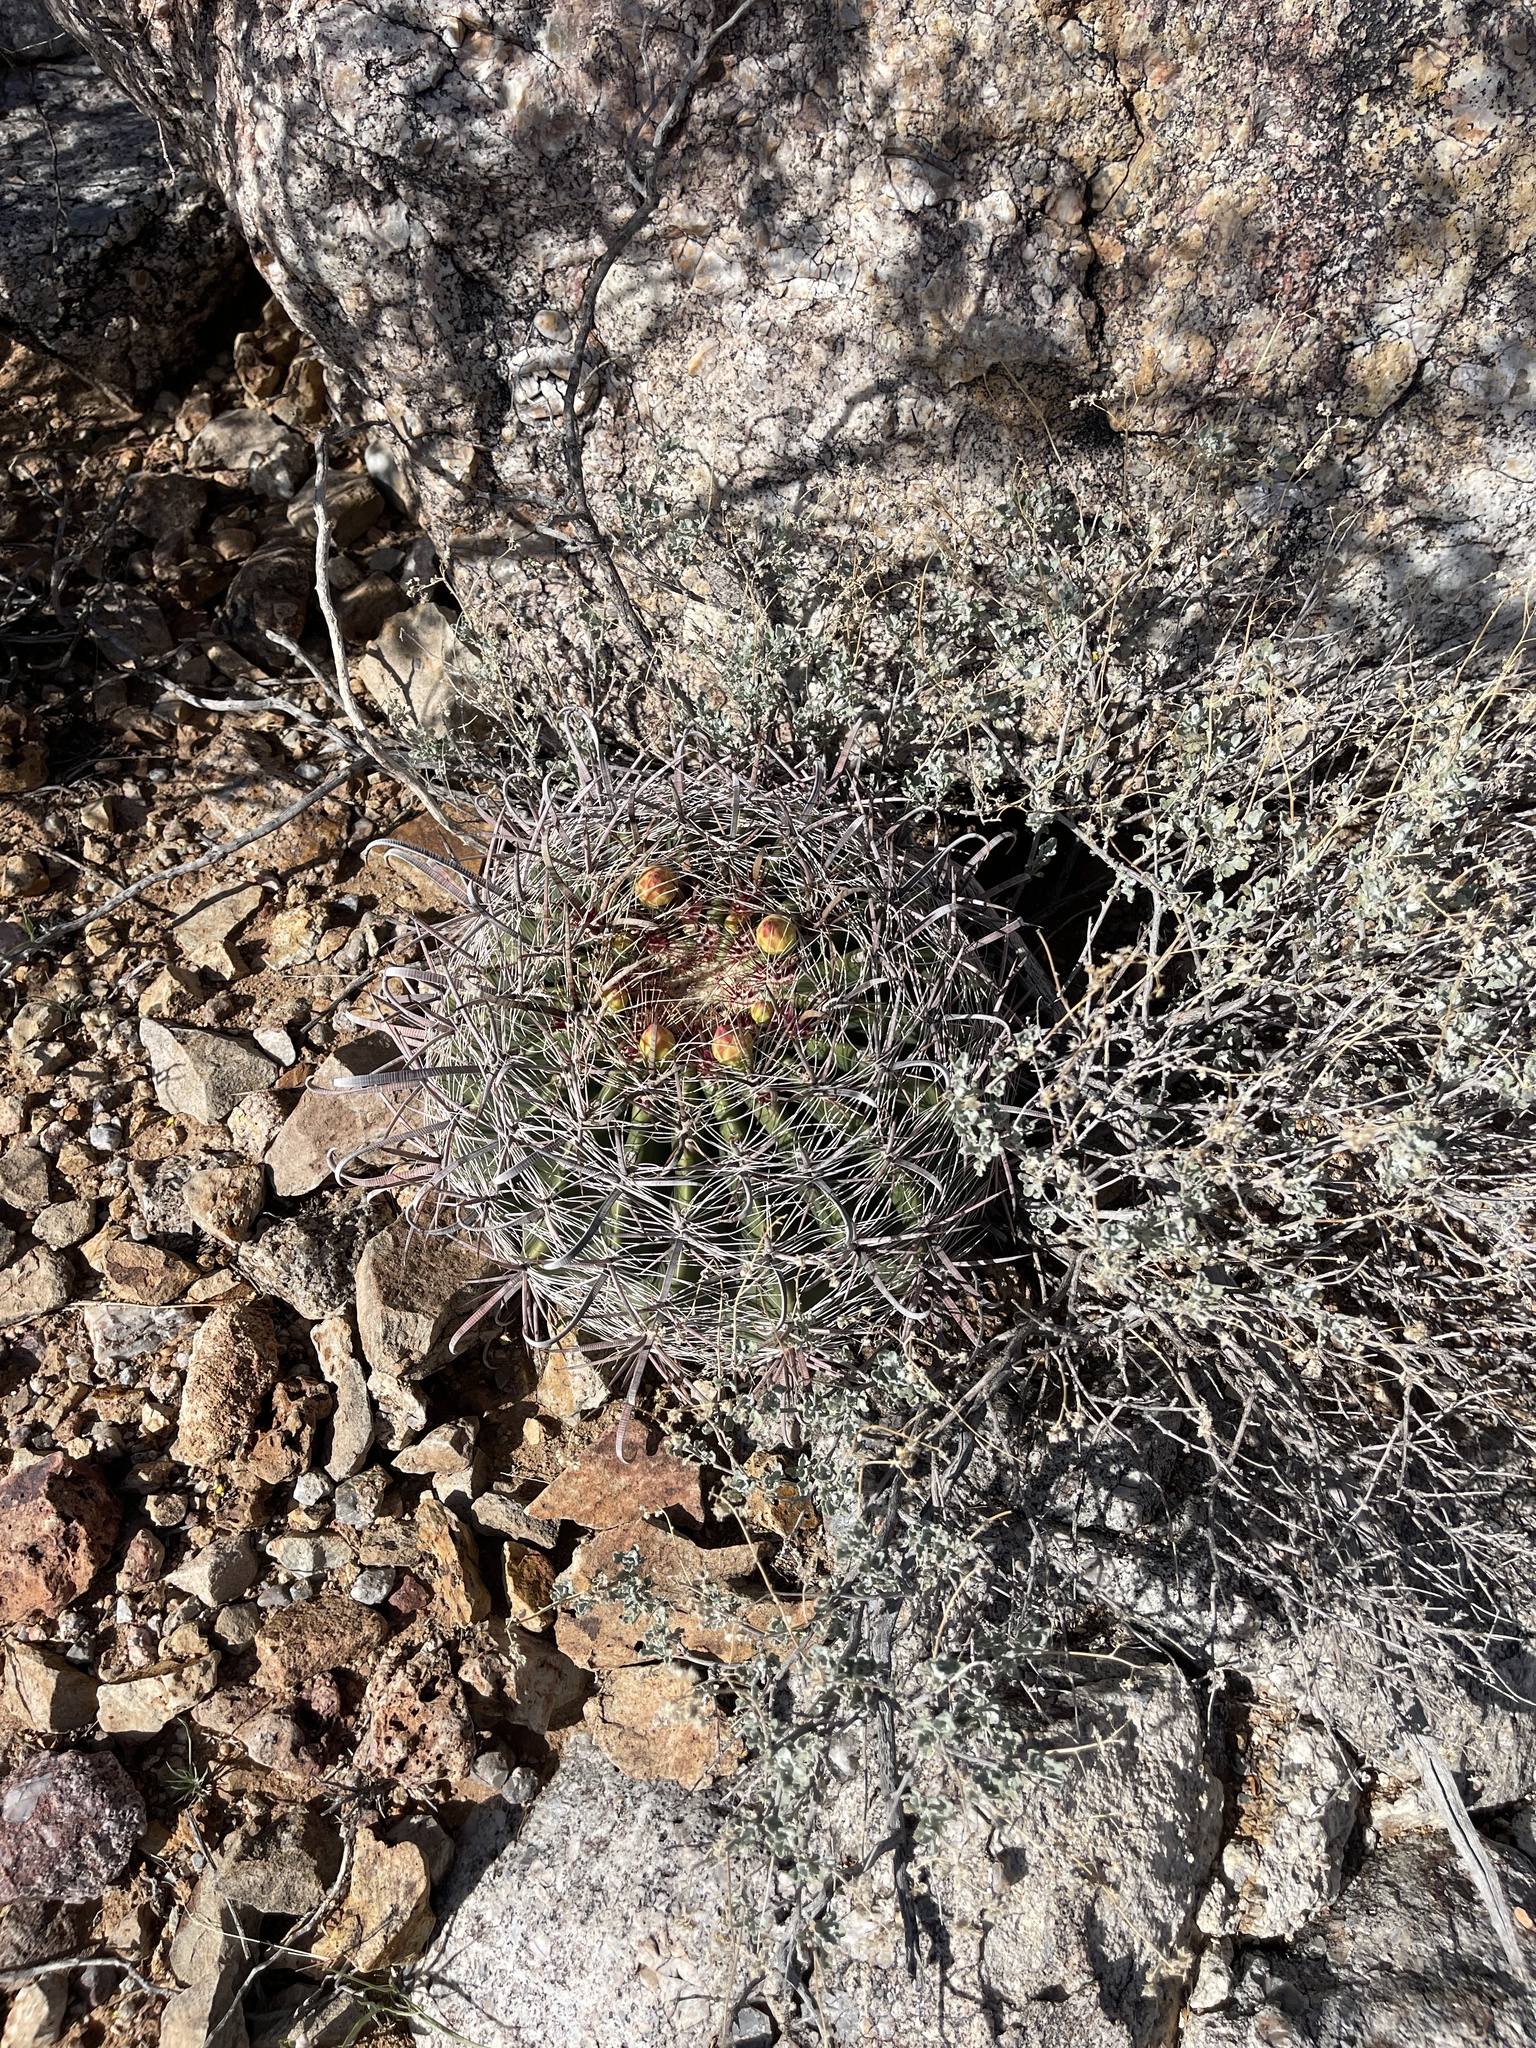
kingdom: Plantae
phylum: Tracheophyta
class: Magnoliopsida
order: Caryophyllales
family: Cactaceae
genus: Ferocactus
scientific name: Ferocactus wislizeni
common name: Candy barrel cactus
